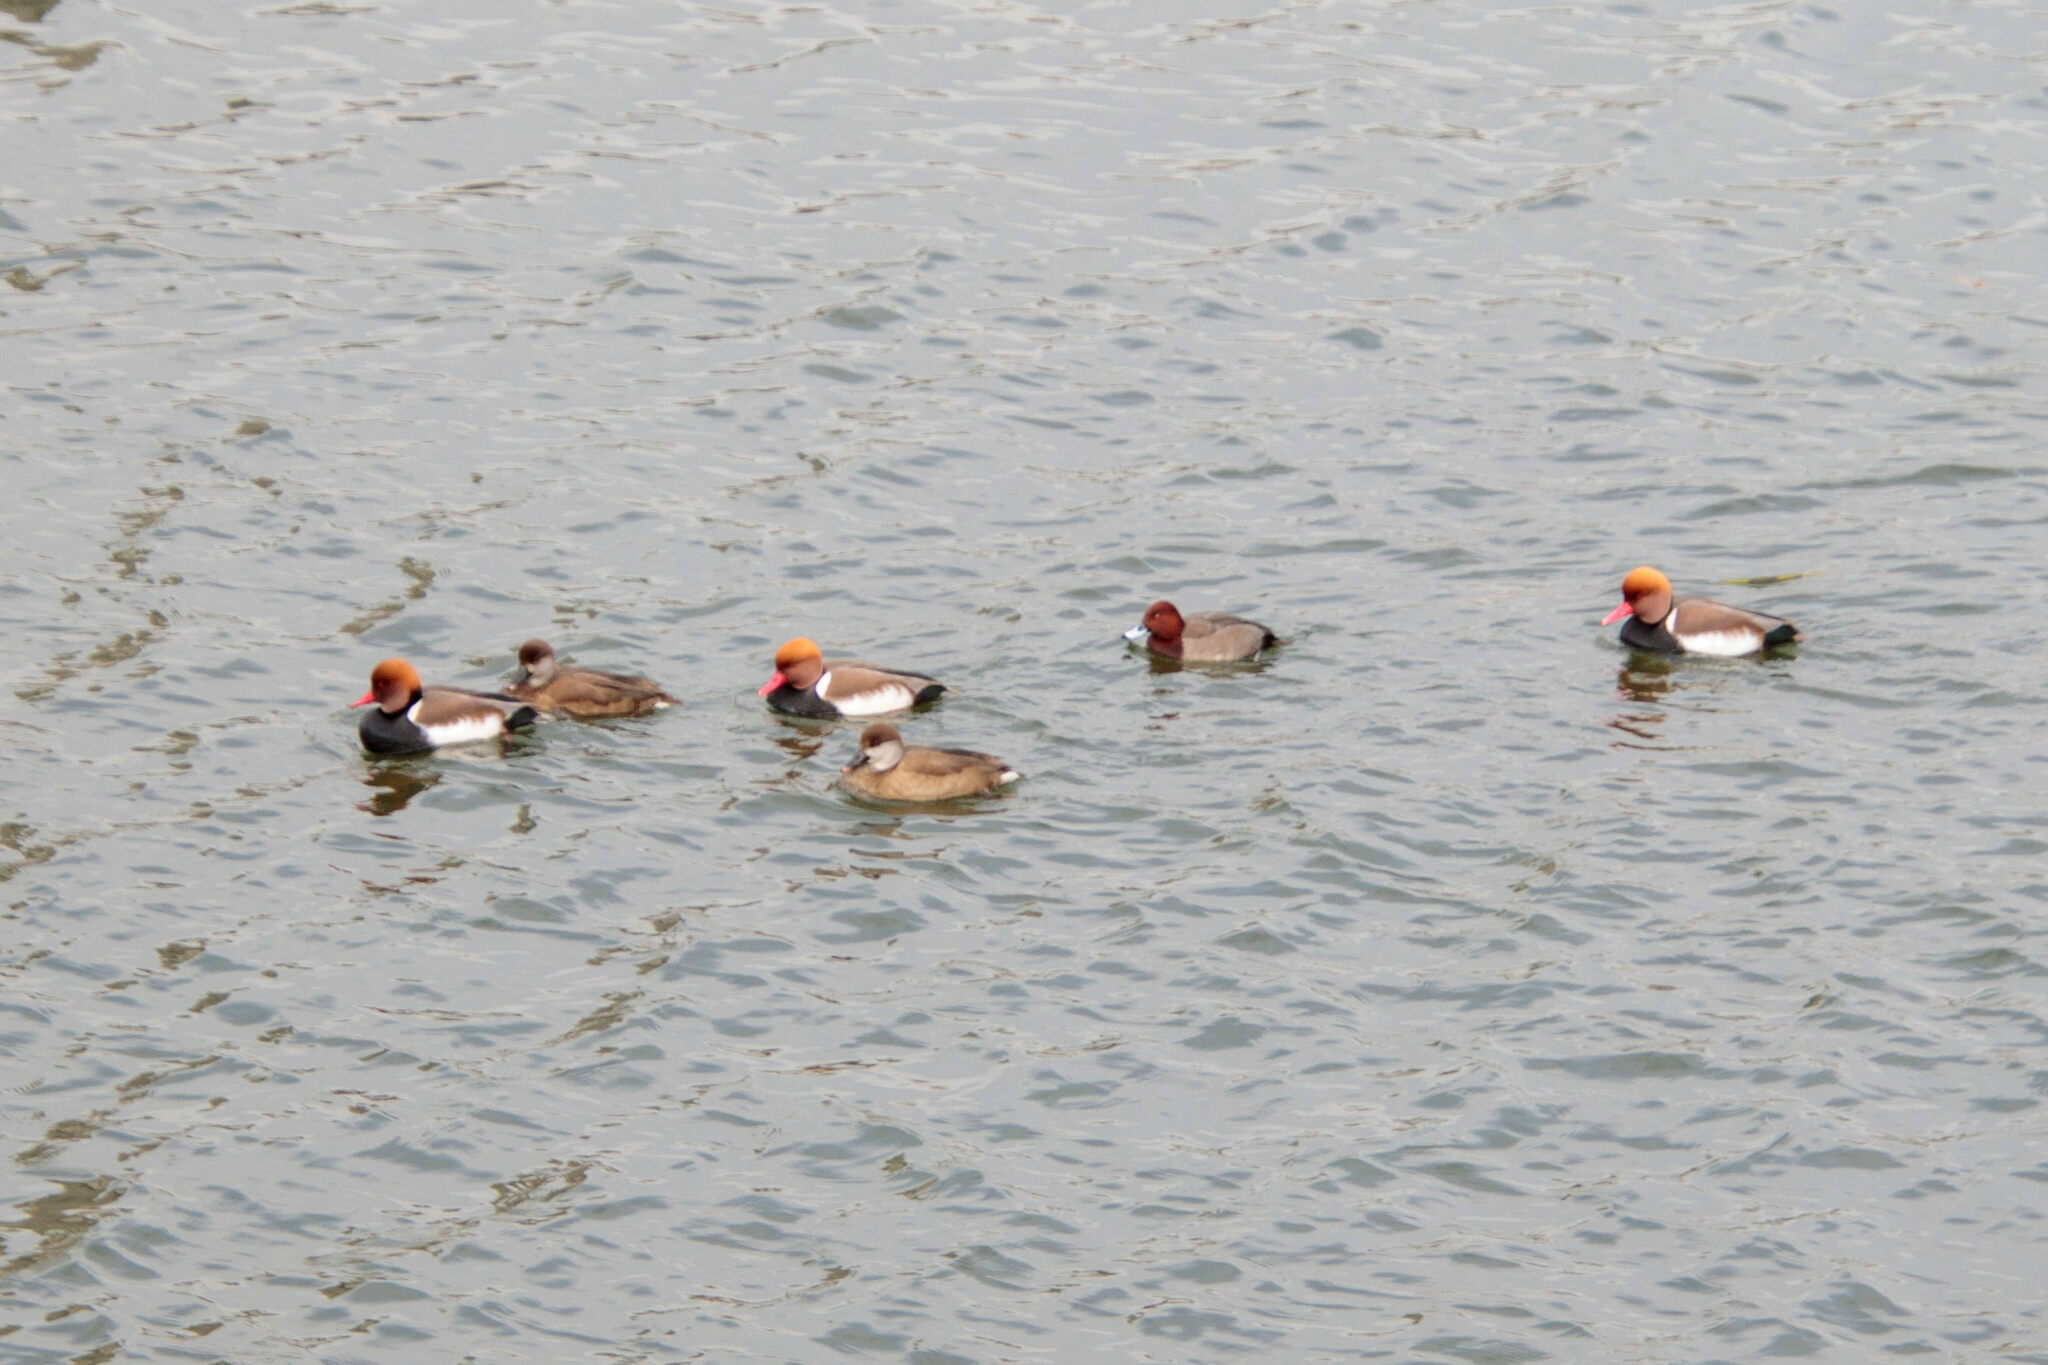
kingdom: Animalia
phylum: Chordata
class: Aves
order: Anseriformes
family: Anatidae
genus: Netta
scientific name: Netta rufina
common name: Red-crested pochard
